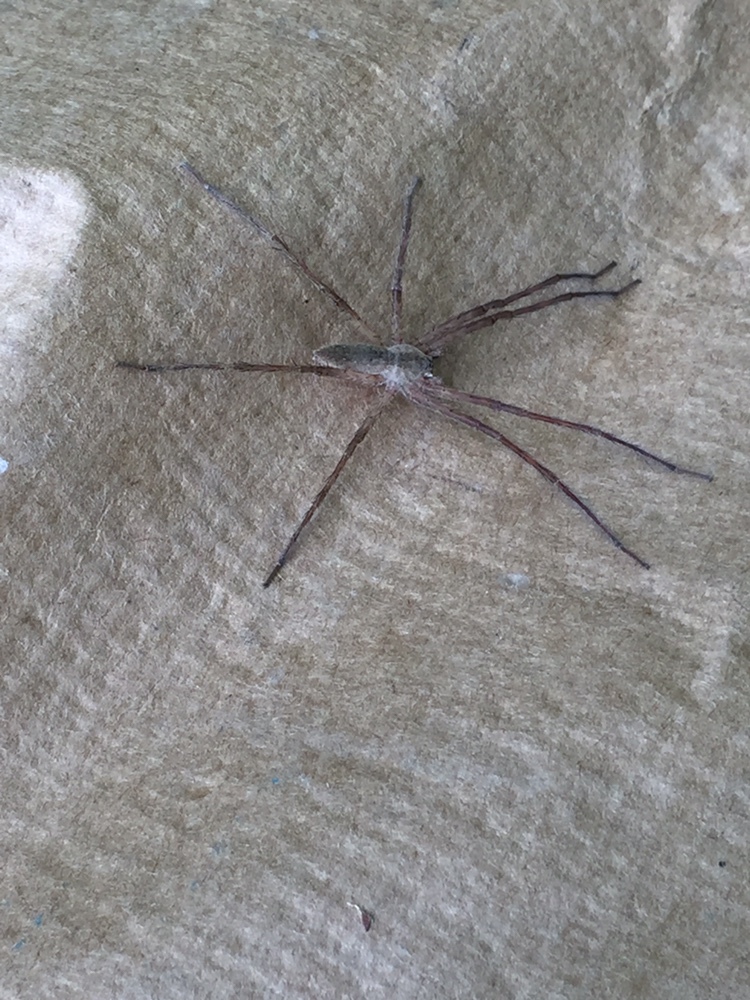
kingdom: Animalia
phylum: Arthropoda
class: Arachnida
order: Araneae
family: Pisauridae
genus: Pisaurina
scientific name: Pisaurina mira
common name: American nursery web spider
